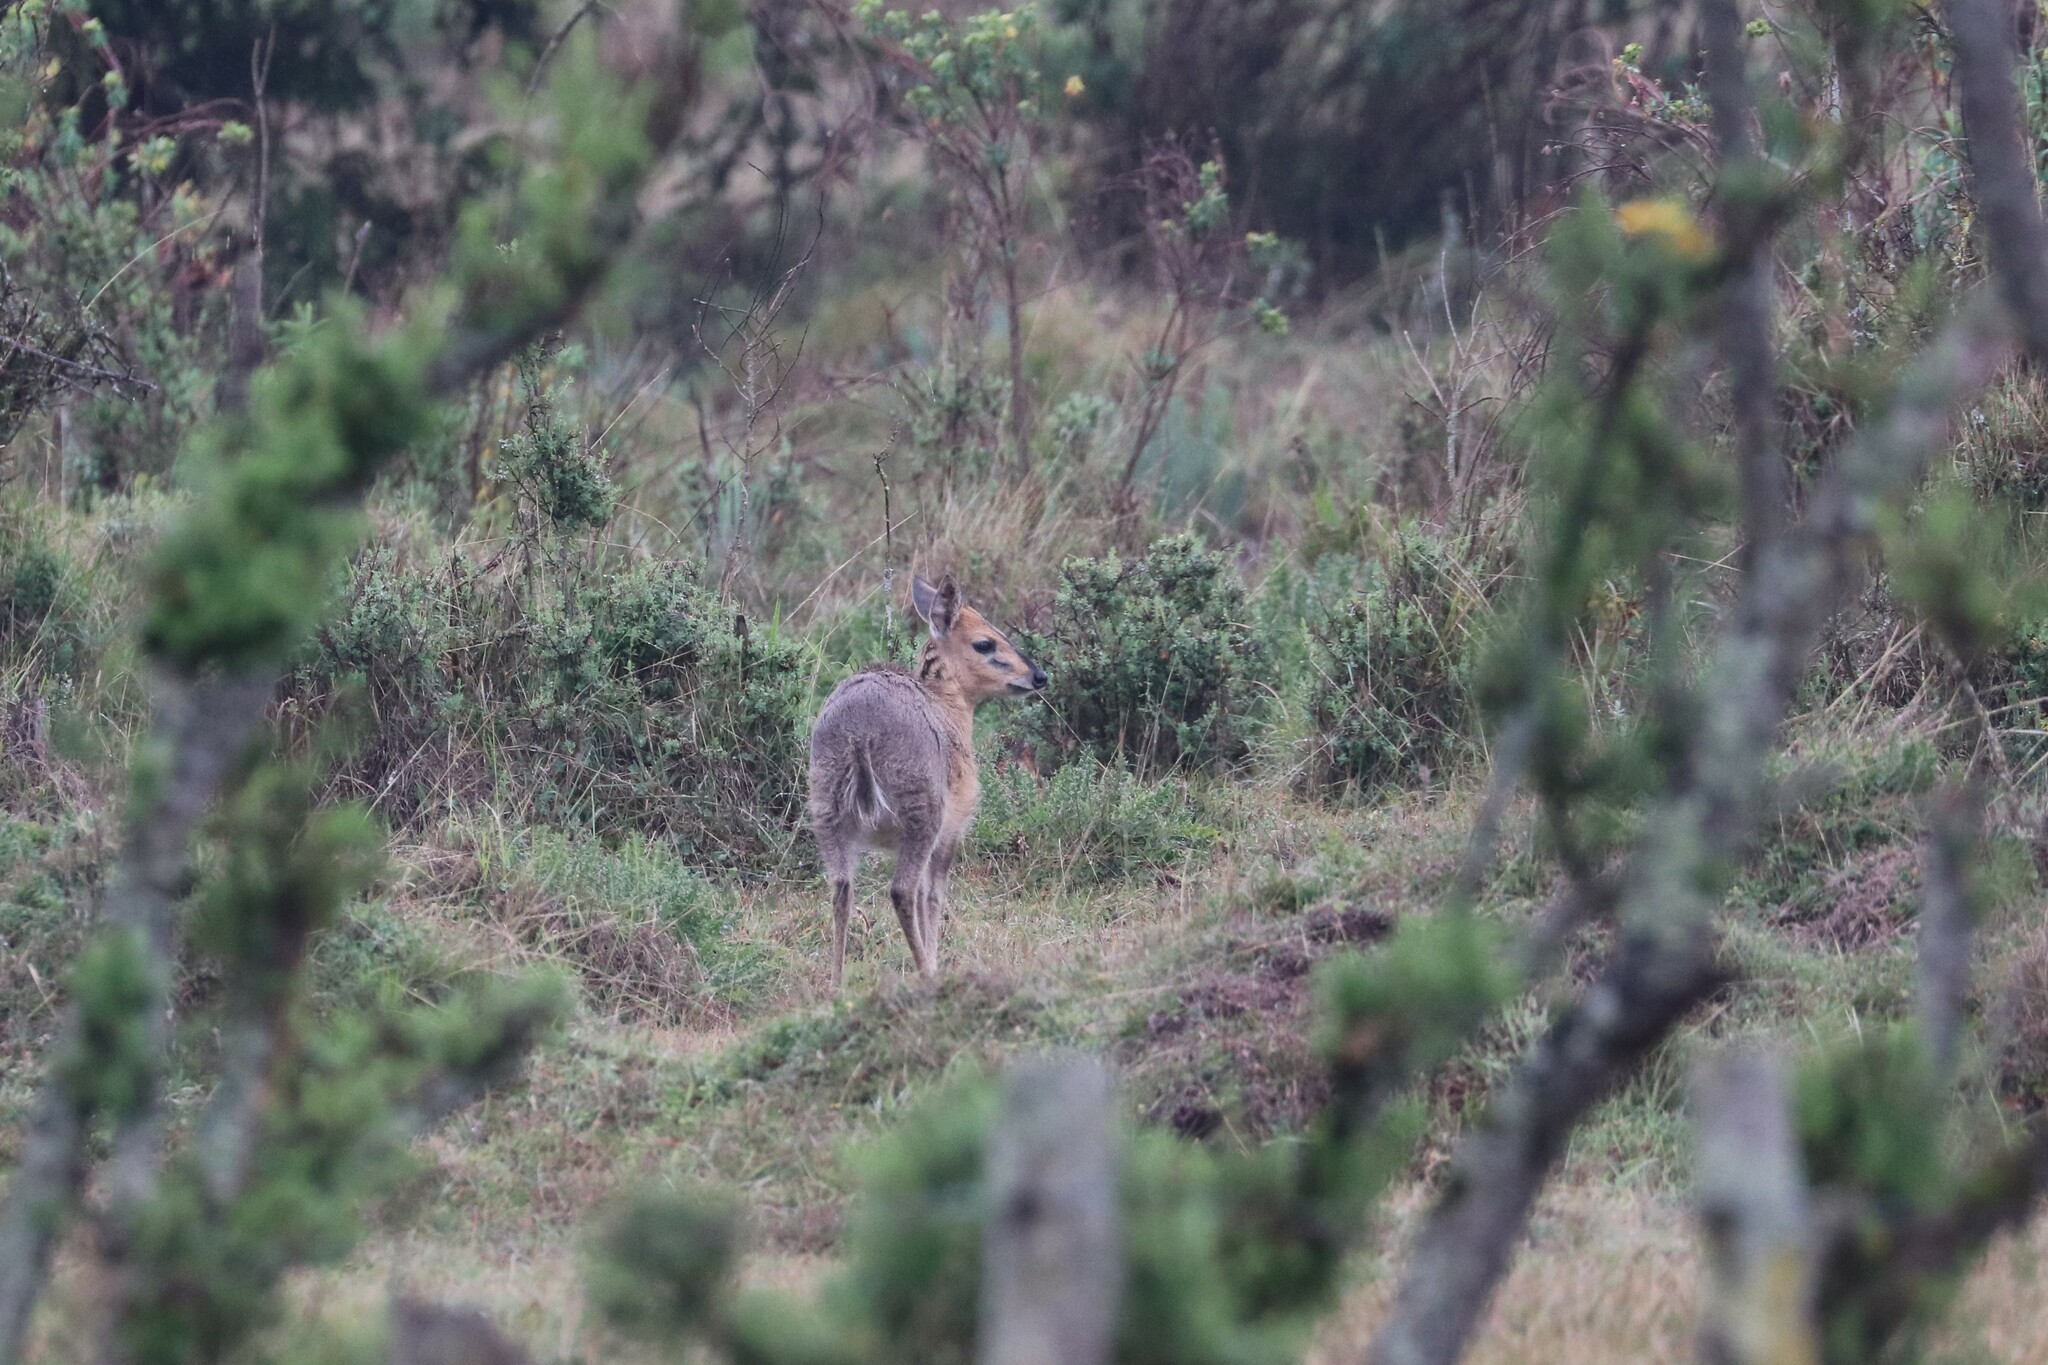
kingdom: Animalia
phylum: Chordata
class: Mammalia
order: Artiodactyla
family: Bovidae
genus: Sylvicapra
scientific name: Sylvicapra grimmia
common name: Bush duiker
